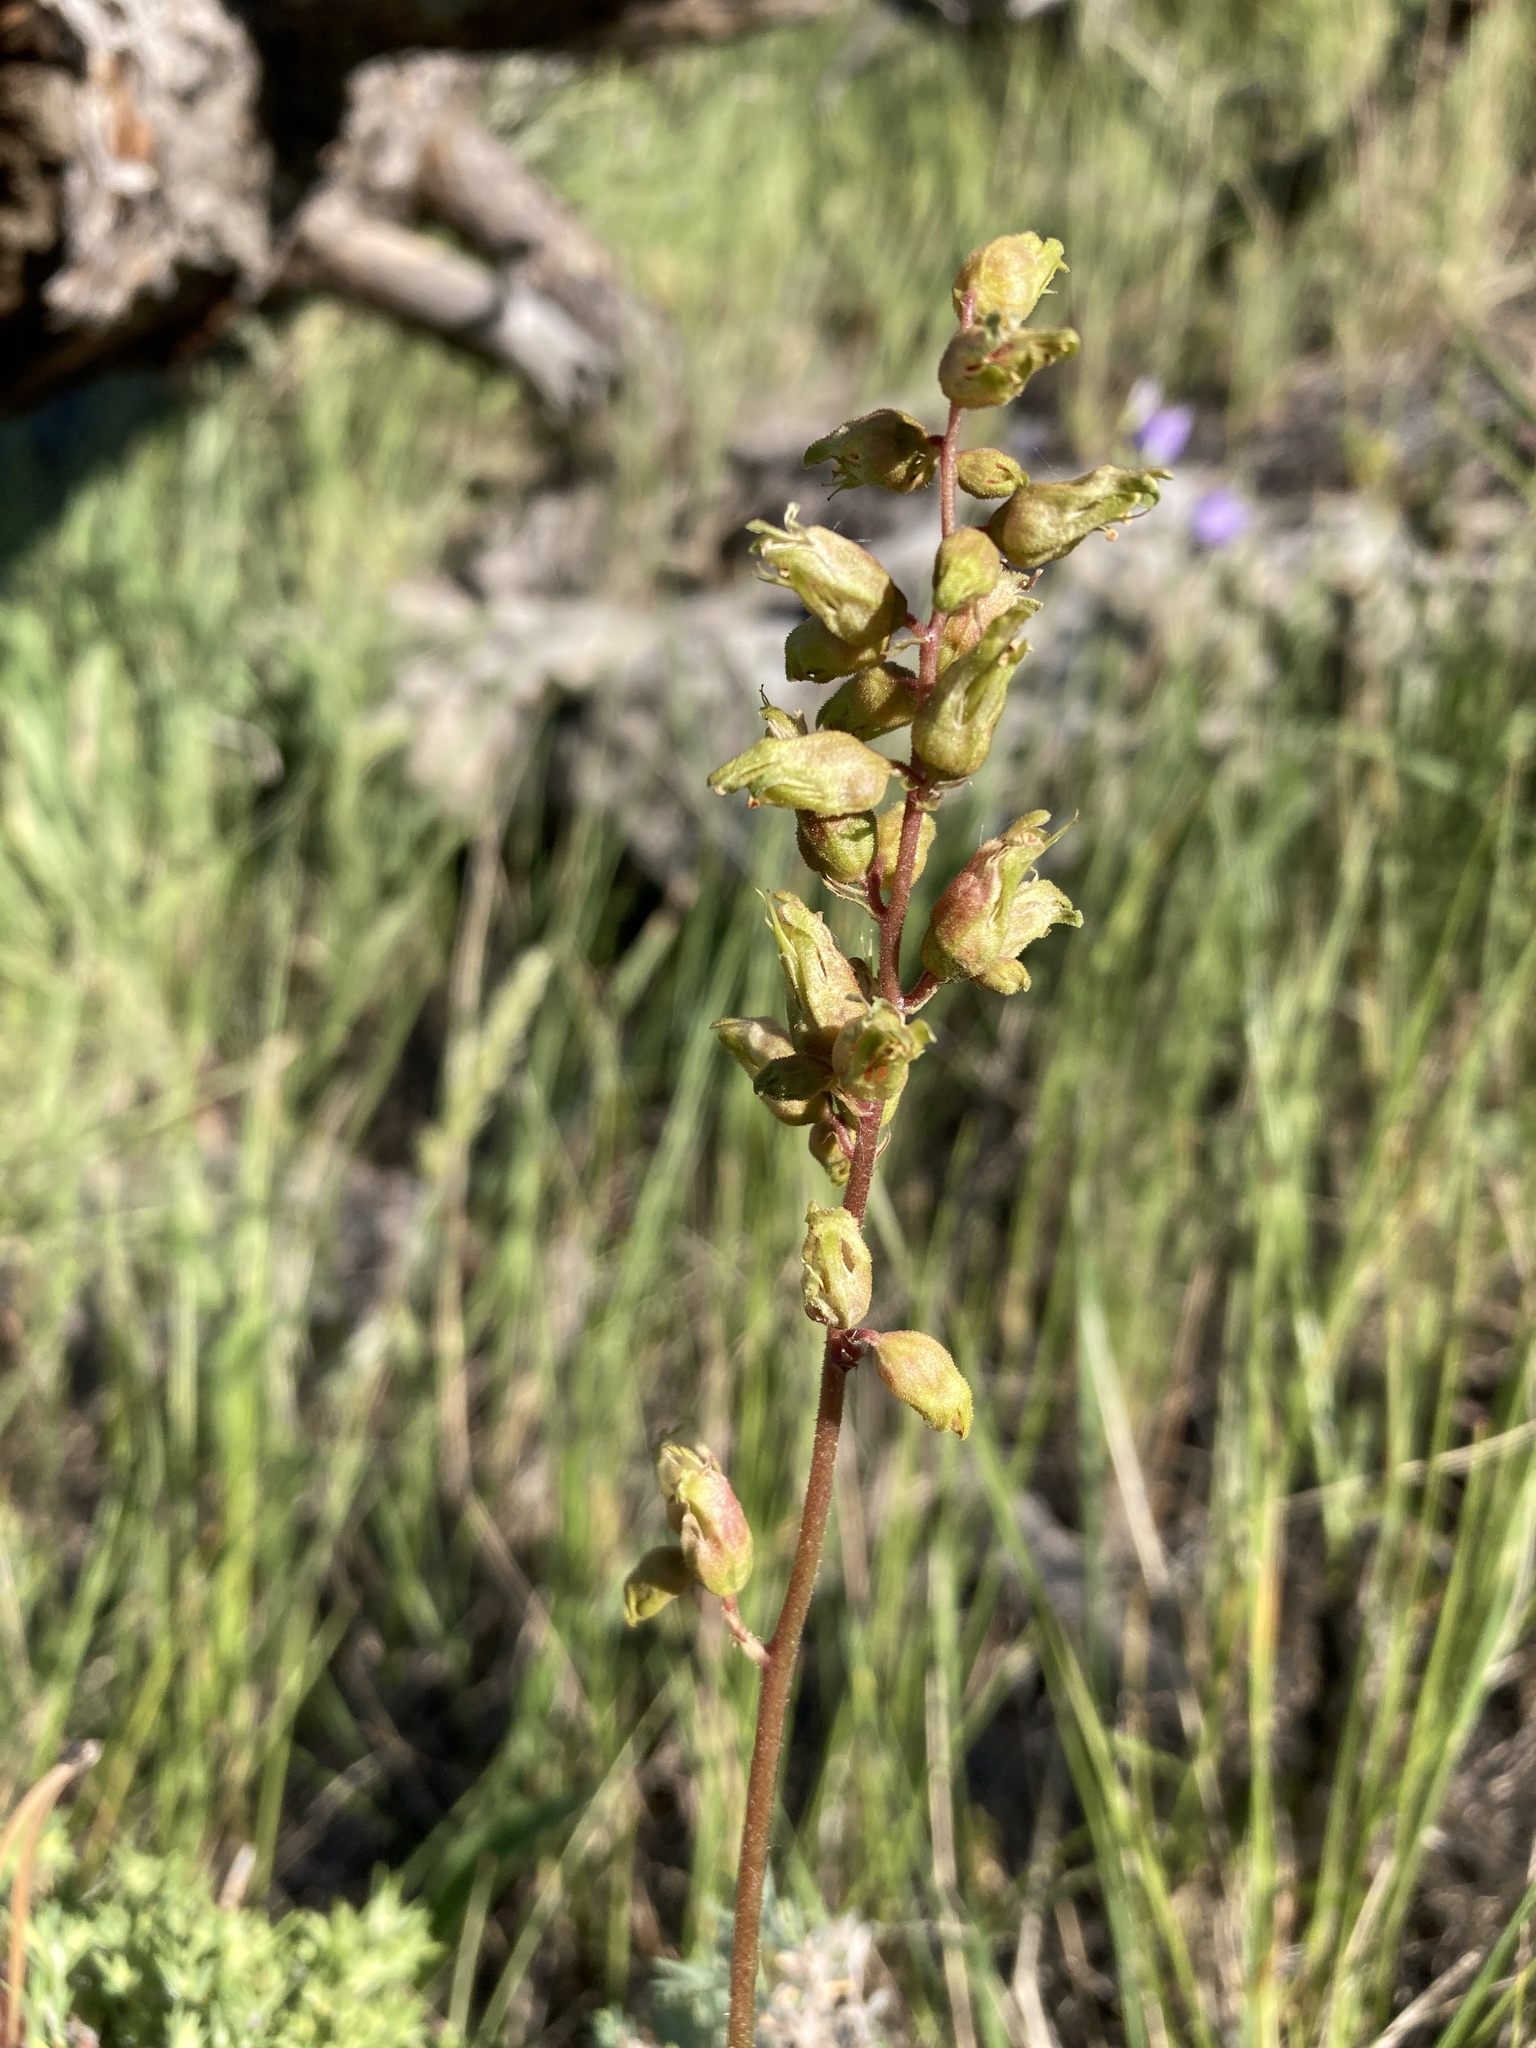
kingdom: Plantae
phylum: Tracheophyta
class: Magnoliopsida
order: Saxifragales
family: Saxifragaceae
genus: Heuchera
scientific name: Heuchera richardsonii
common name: Richardson's alumroot
